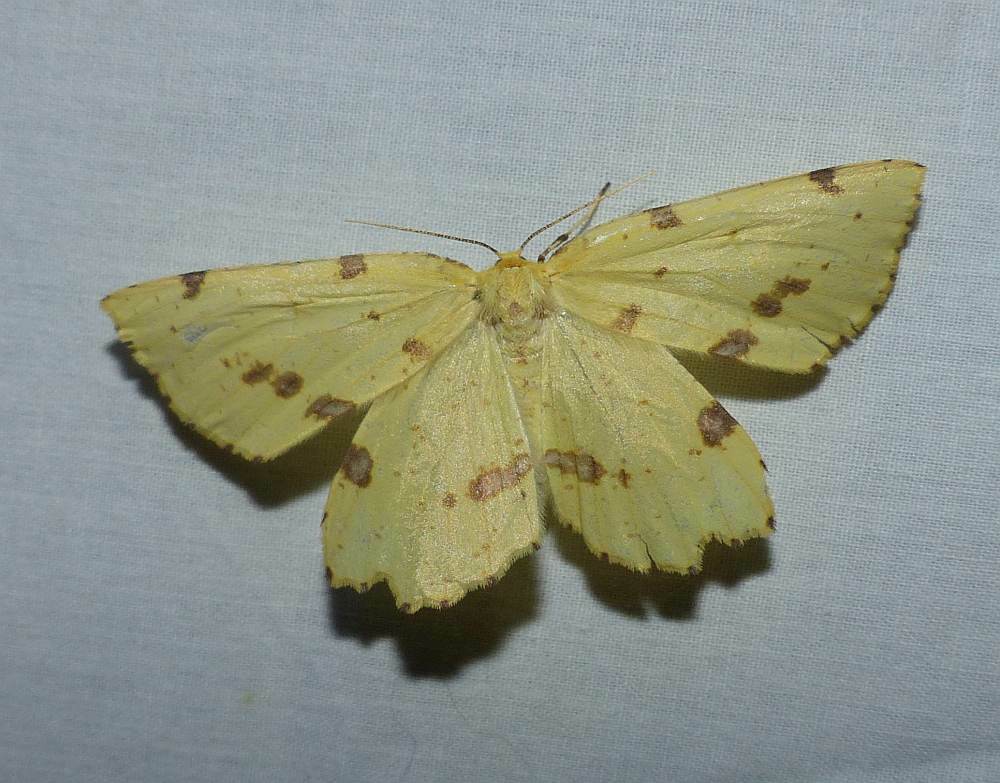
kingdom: Animalia
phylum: Arthropoda
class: Insecta
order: Lepidoptera
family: Geometridae
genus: Xanthotype
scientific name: Xanthotype
